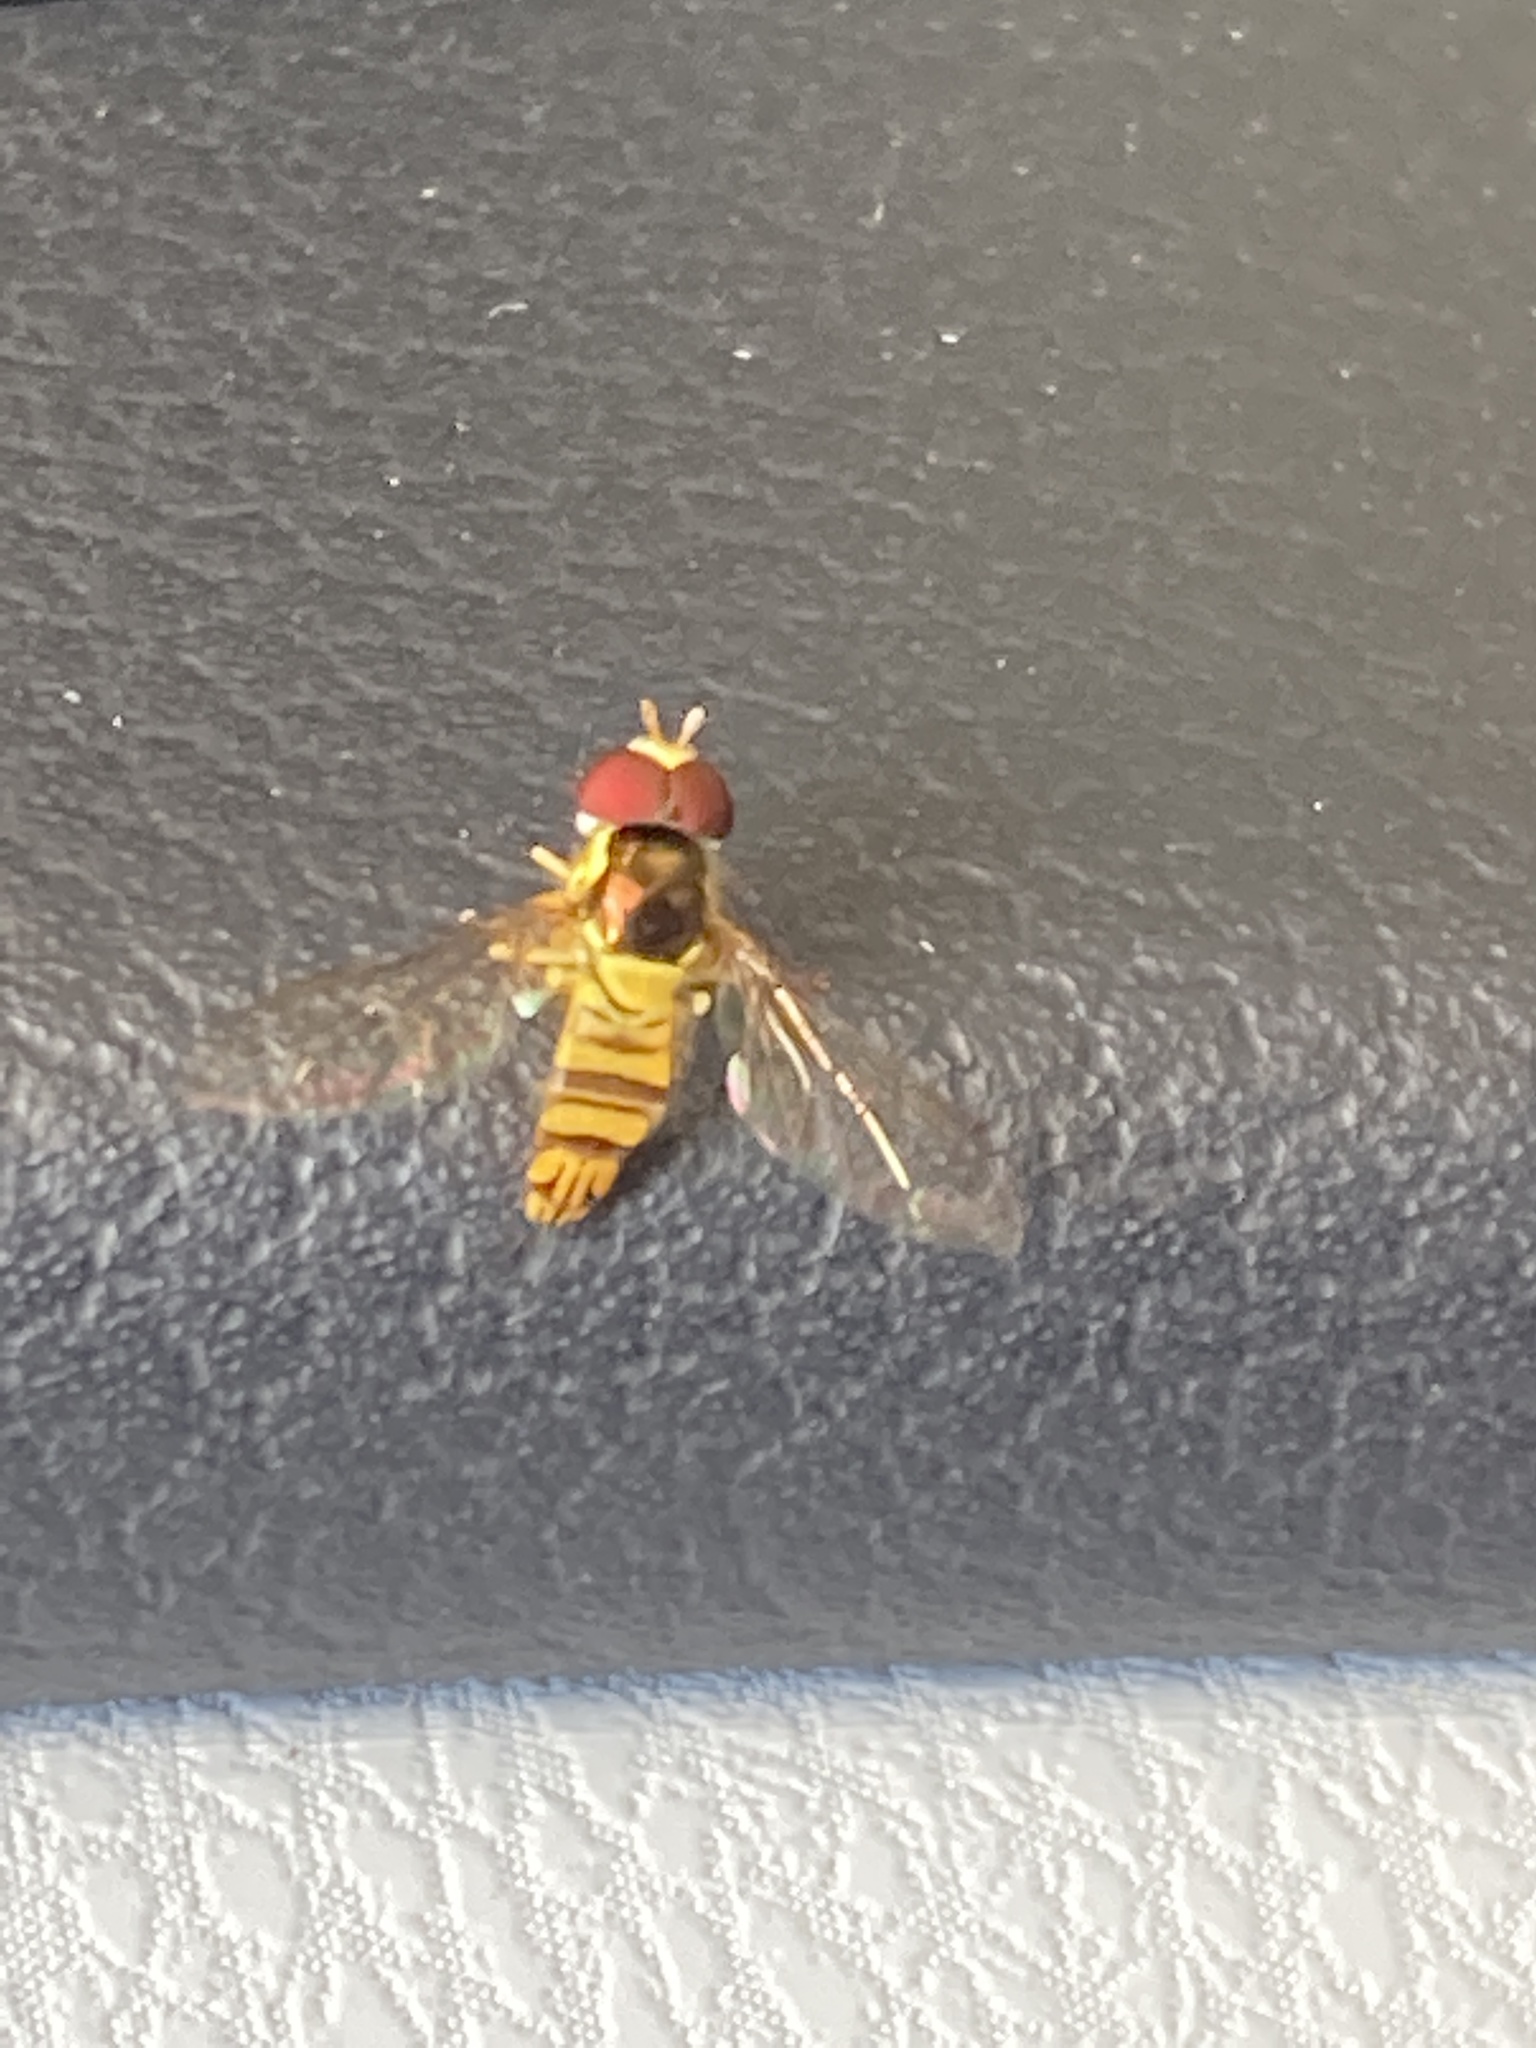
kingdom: Animalia
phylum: Arthropoda
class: Insecta
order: Diptera
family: Syrphidae
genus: Allograpta
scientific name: Allograpta obliqua
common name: Common oblique syrphid
